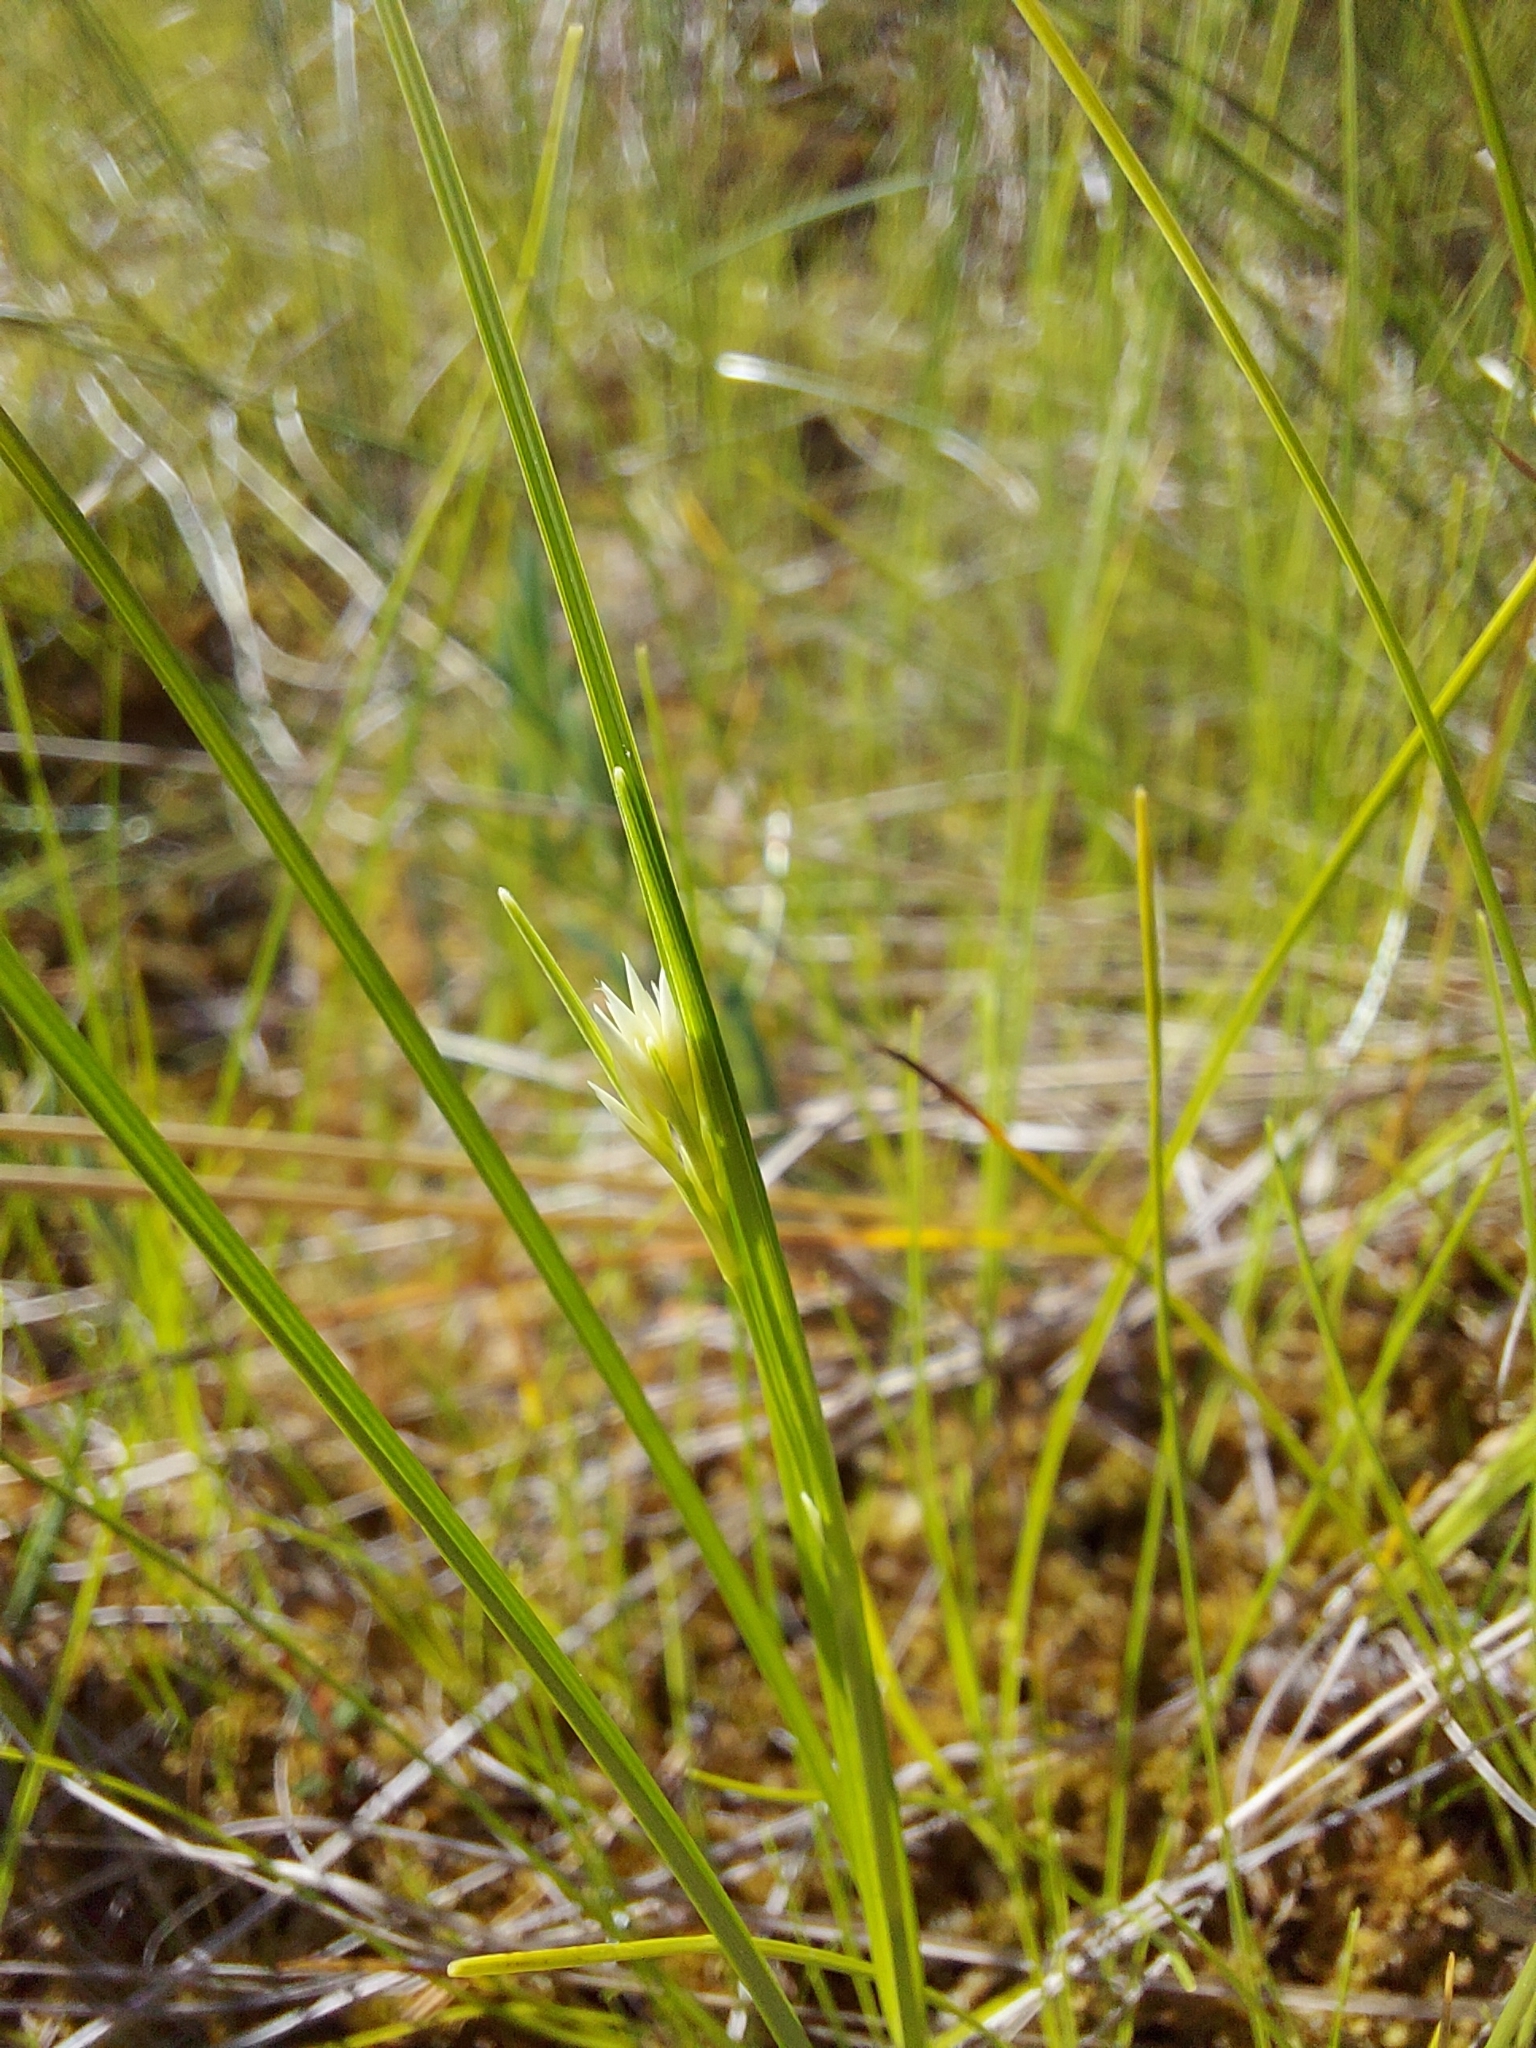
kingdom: Plantae
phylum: Tracheophyta
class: Liliopsida
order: Poales
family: Cyperaceae
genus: Rhynchospora
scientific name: Rhynchospora alba
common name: White beak-sedge
